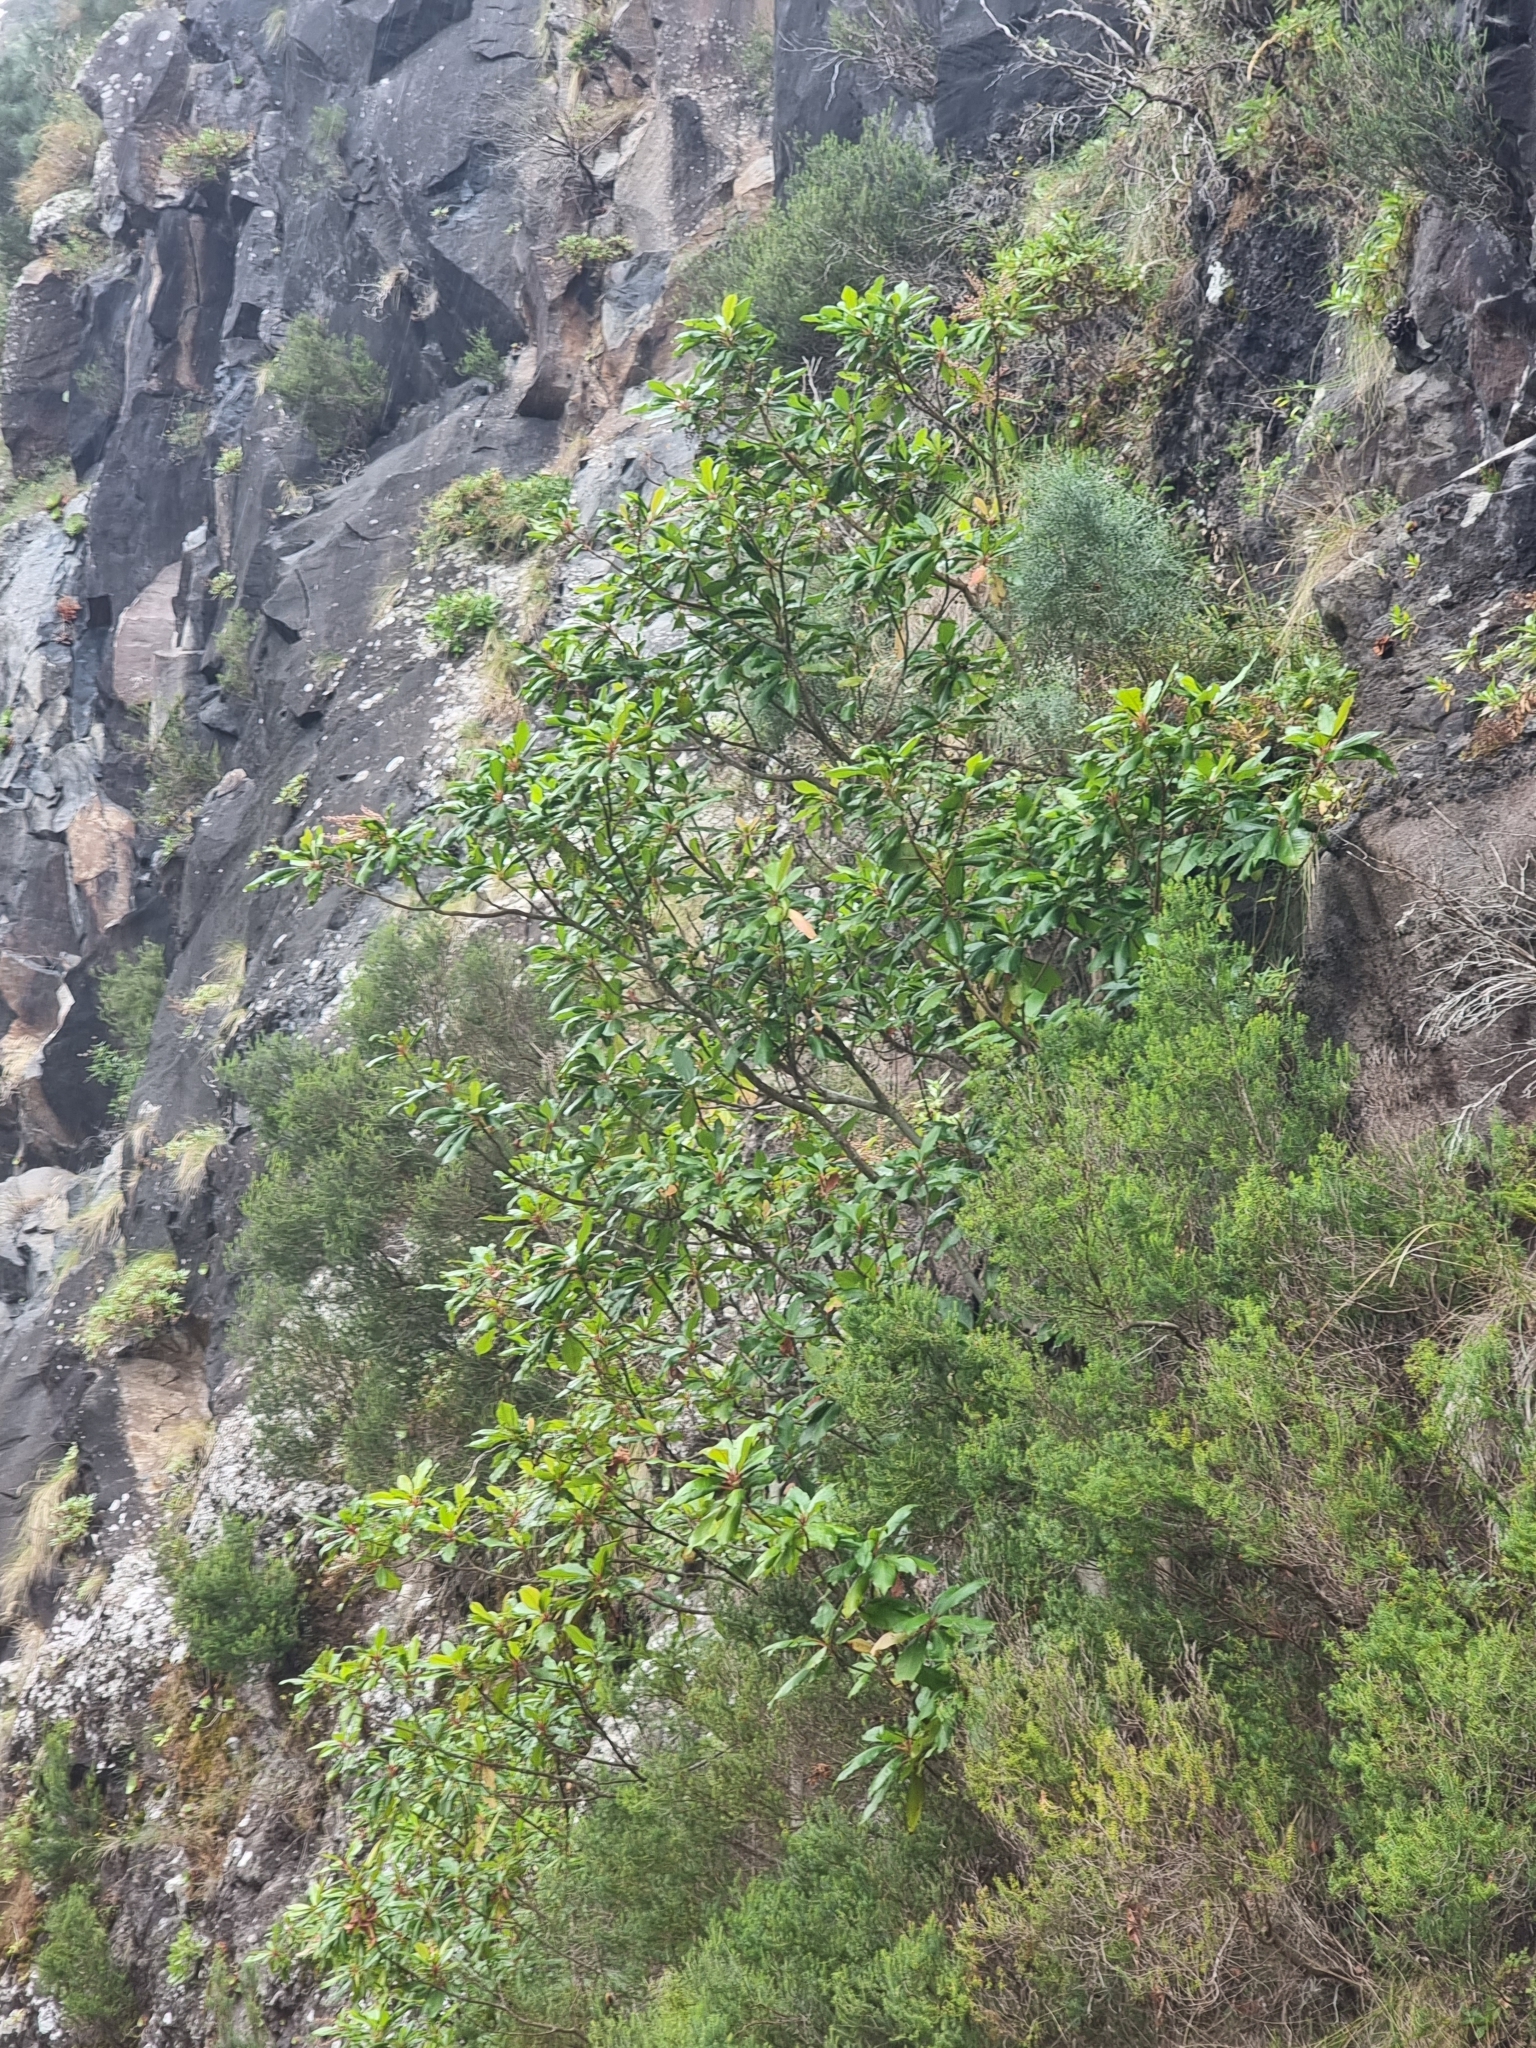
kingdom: Plantae
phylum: Tracheophyta
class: Magnoliopsida
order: Ericales
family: Clethraceae
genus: Clethra
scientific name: Clethra arborea
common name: Lily-of-the-valley-tree
